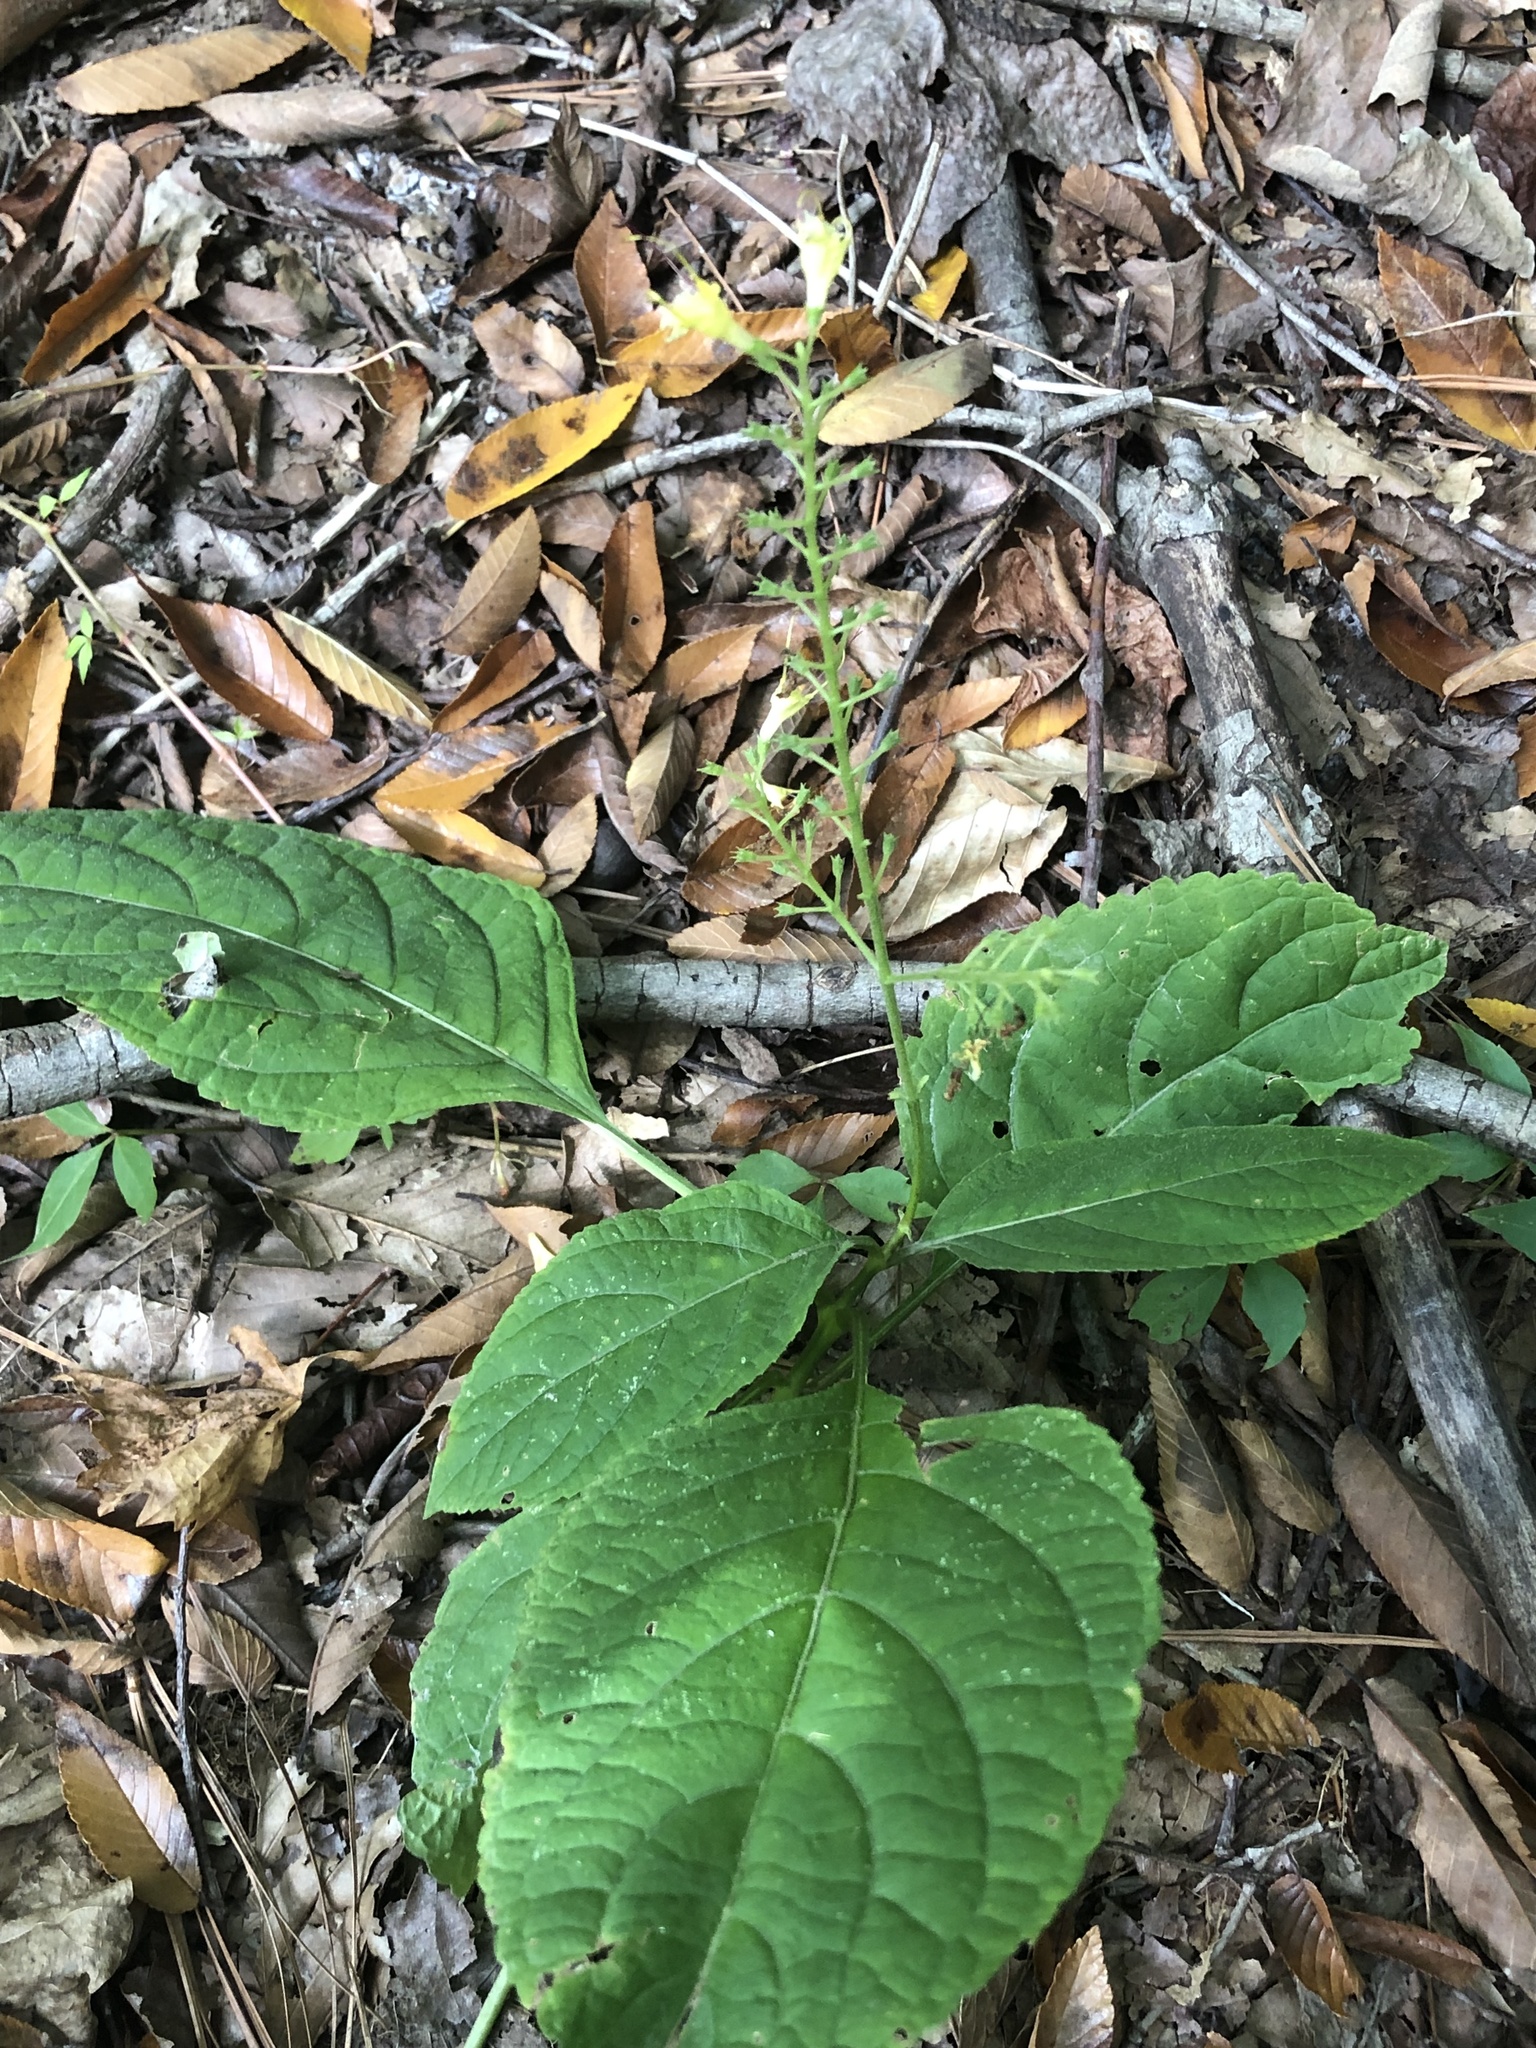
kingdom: Plantae
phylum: Tracheophyta
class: Magnoliopsida
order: Lamiales
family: Lamiaceae
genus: Collinsonia
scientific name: Collinsonia canadensis
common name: Northern horsebalm
